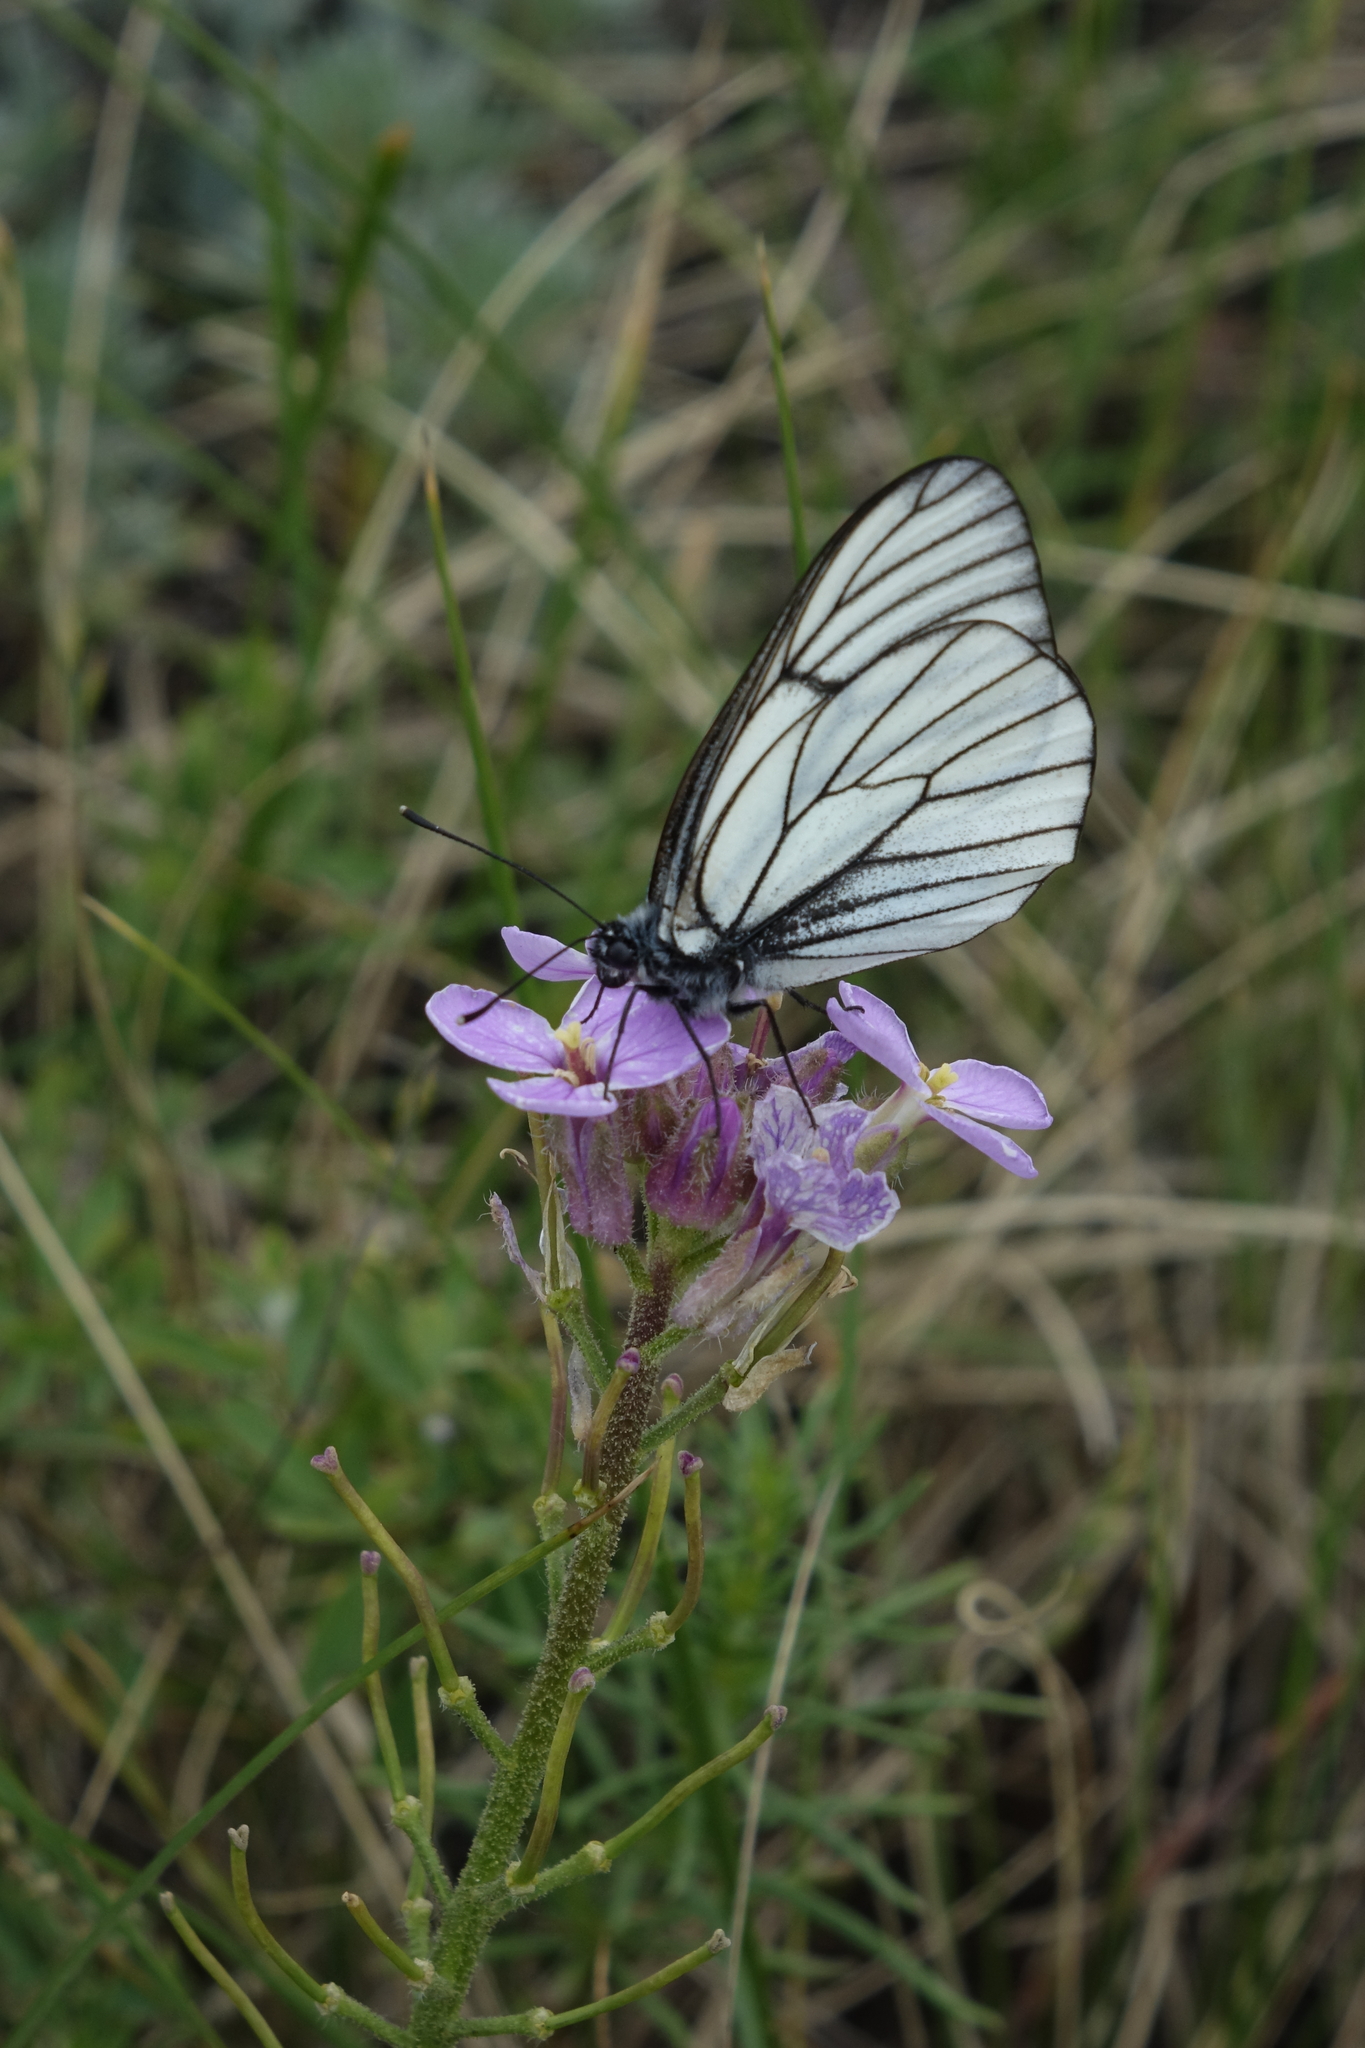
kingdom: Animalia
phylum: Arthropoda
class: Insecta
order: Lepidoptera
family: Pieridae
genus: Aporia
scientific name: Aporia crataegi
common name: Black-veined white
